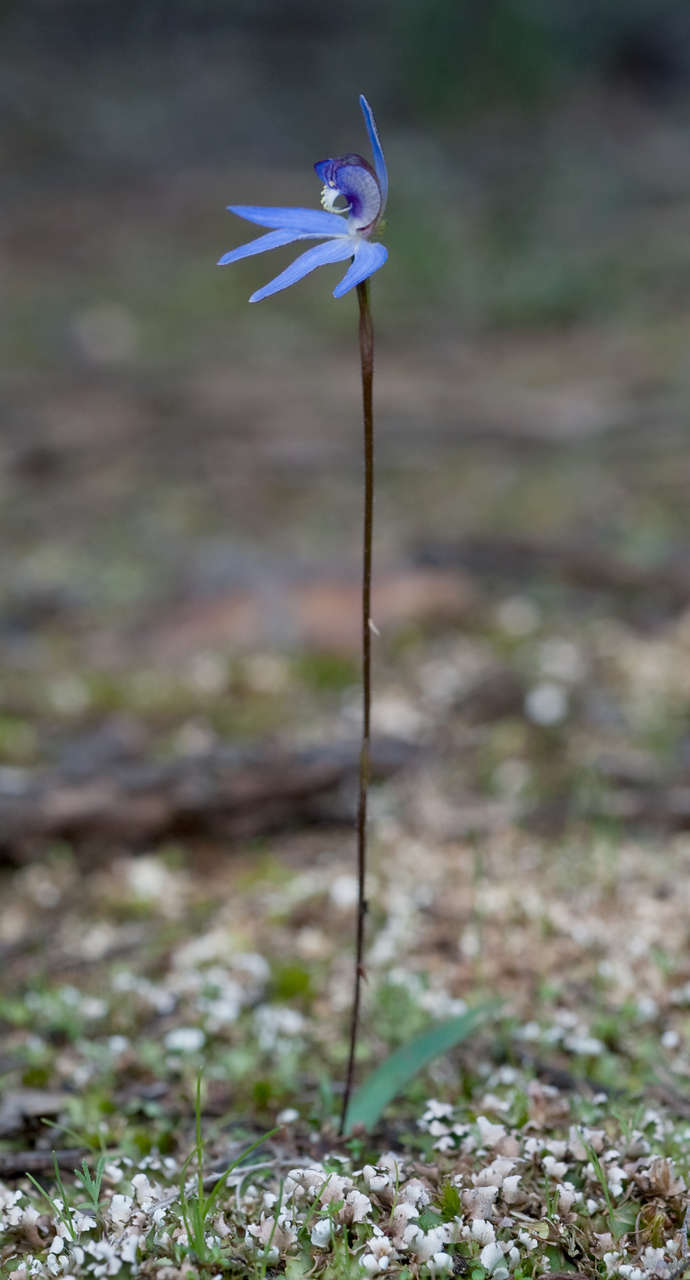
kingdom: Plantae
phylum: Tracheophyta
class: Liliopsida
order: Asparagales
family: Orchidaceae
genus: Caladenia
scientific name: Caladenia caerulea
